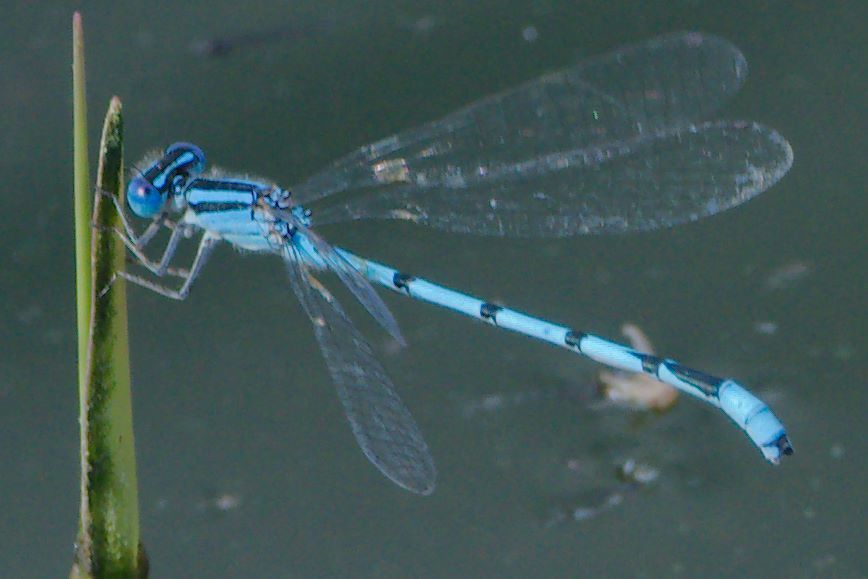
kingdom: Animalia
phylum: Arthropoda
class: Insecta
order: Odonata
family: Coenagrionidae
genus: Enallagma
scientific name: Enallagma civile
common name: Damselfly
